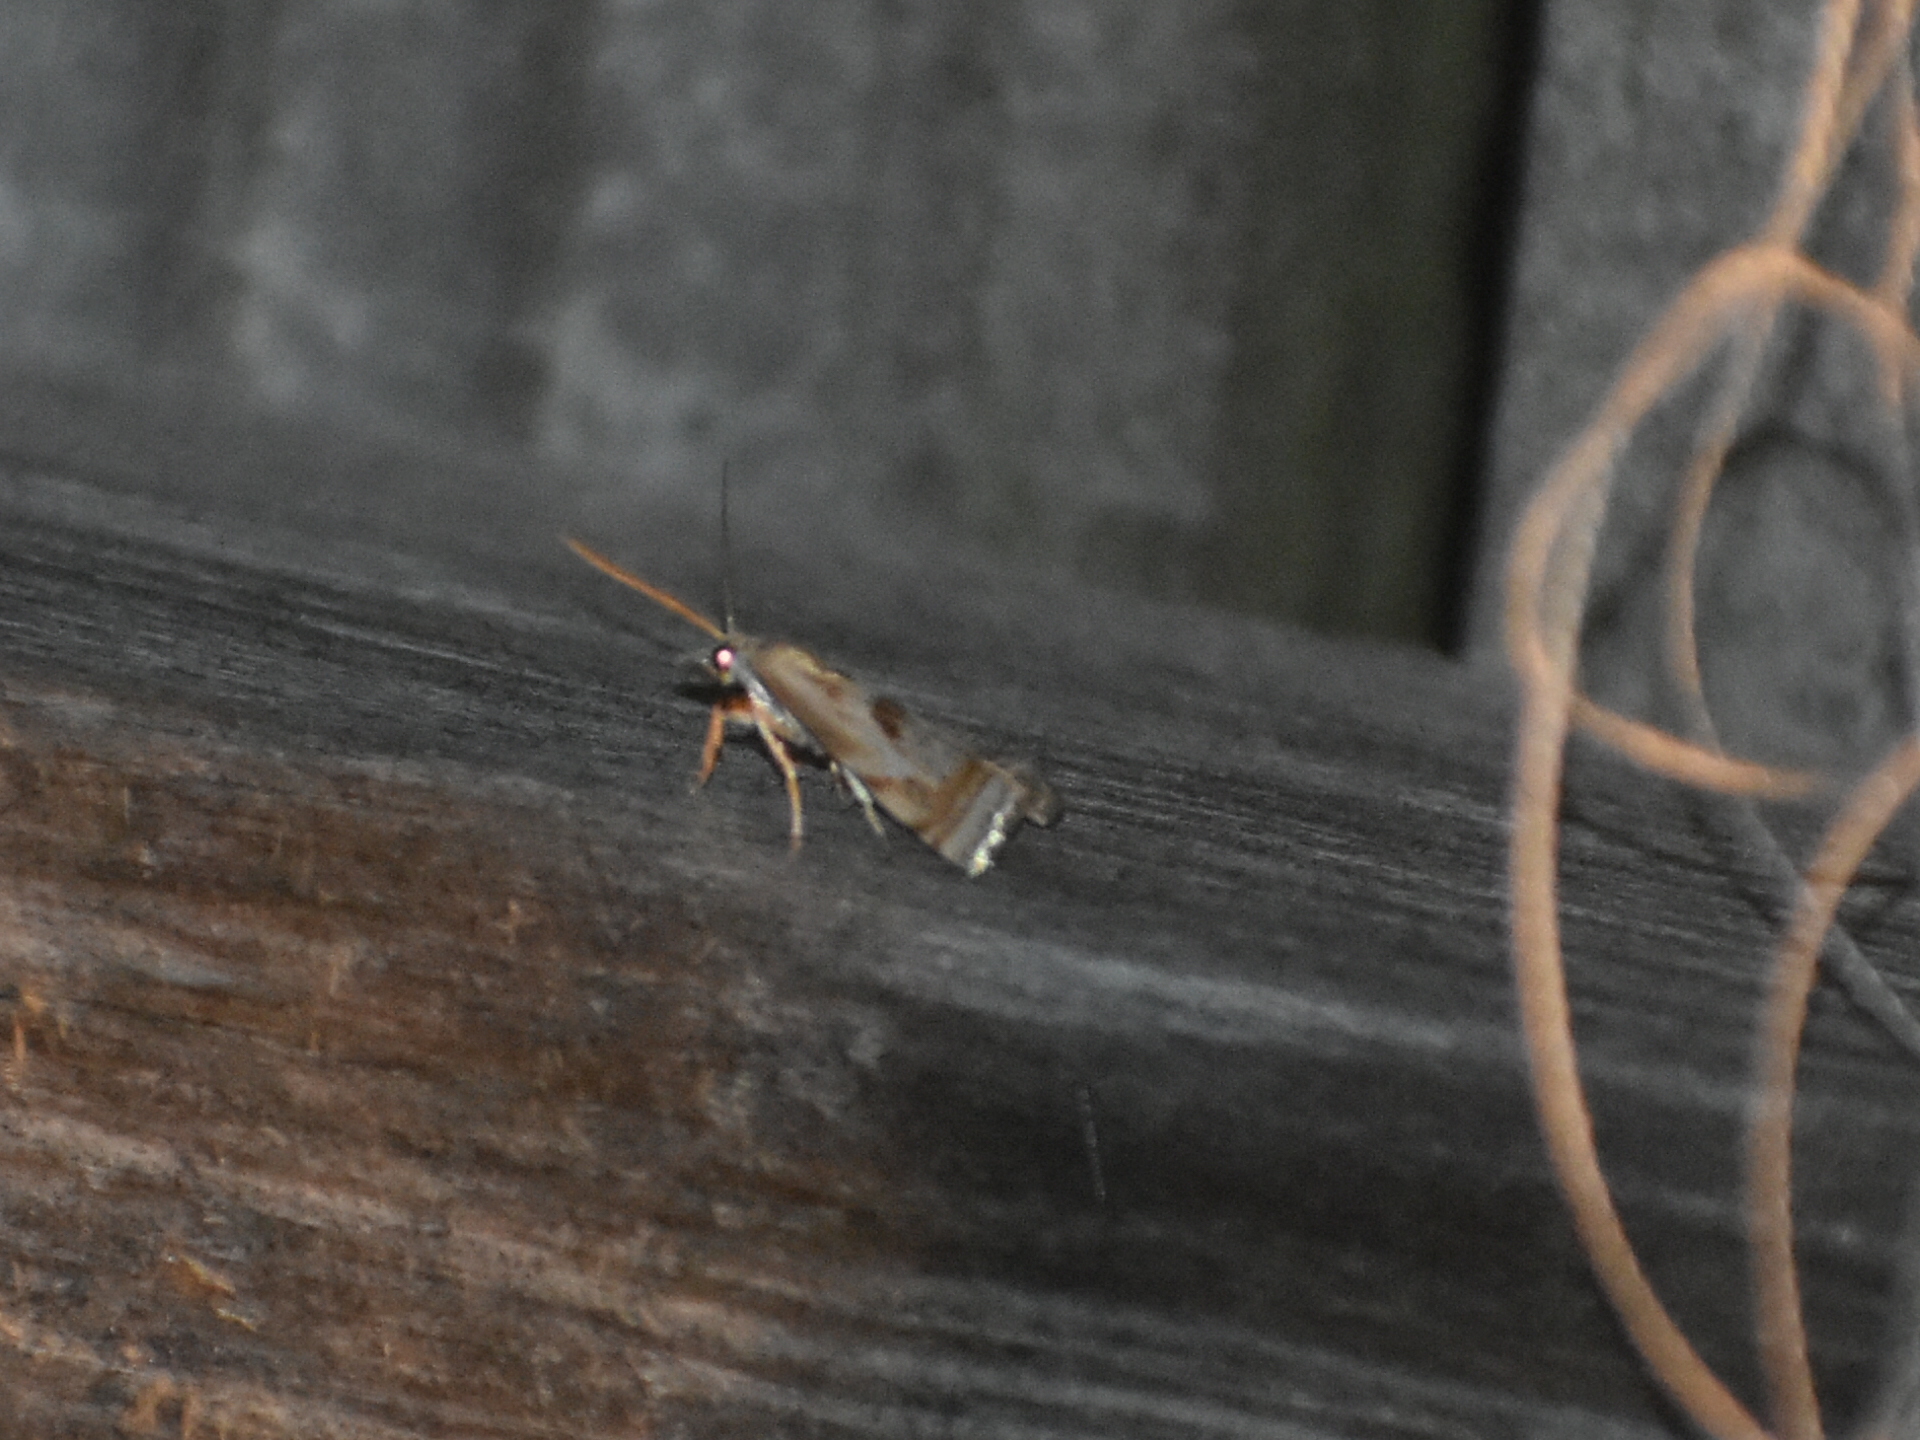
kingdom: Animalia
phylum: Arthropoda
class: Insecta
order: Lepidoptera
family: Crambidae
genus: Microcrambus
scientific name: Microcrambus elegans
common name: Elegant grass-veneer
